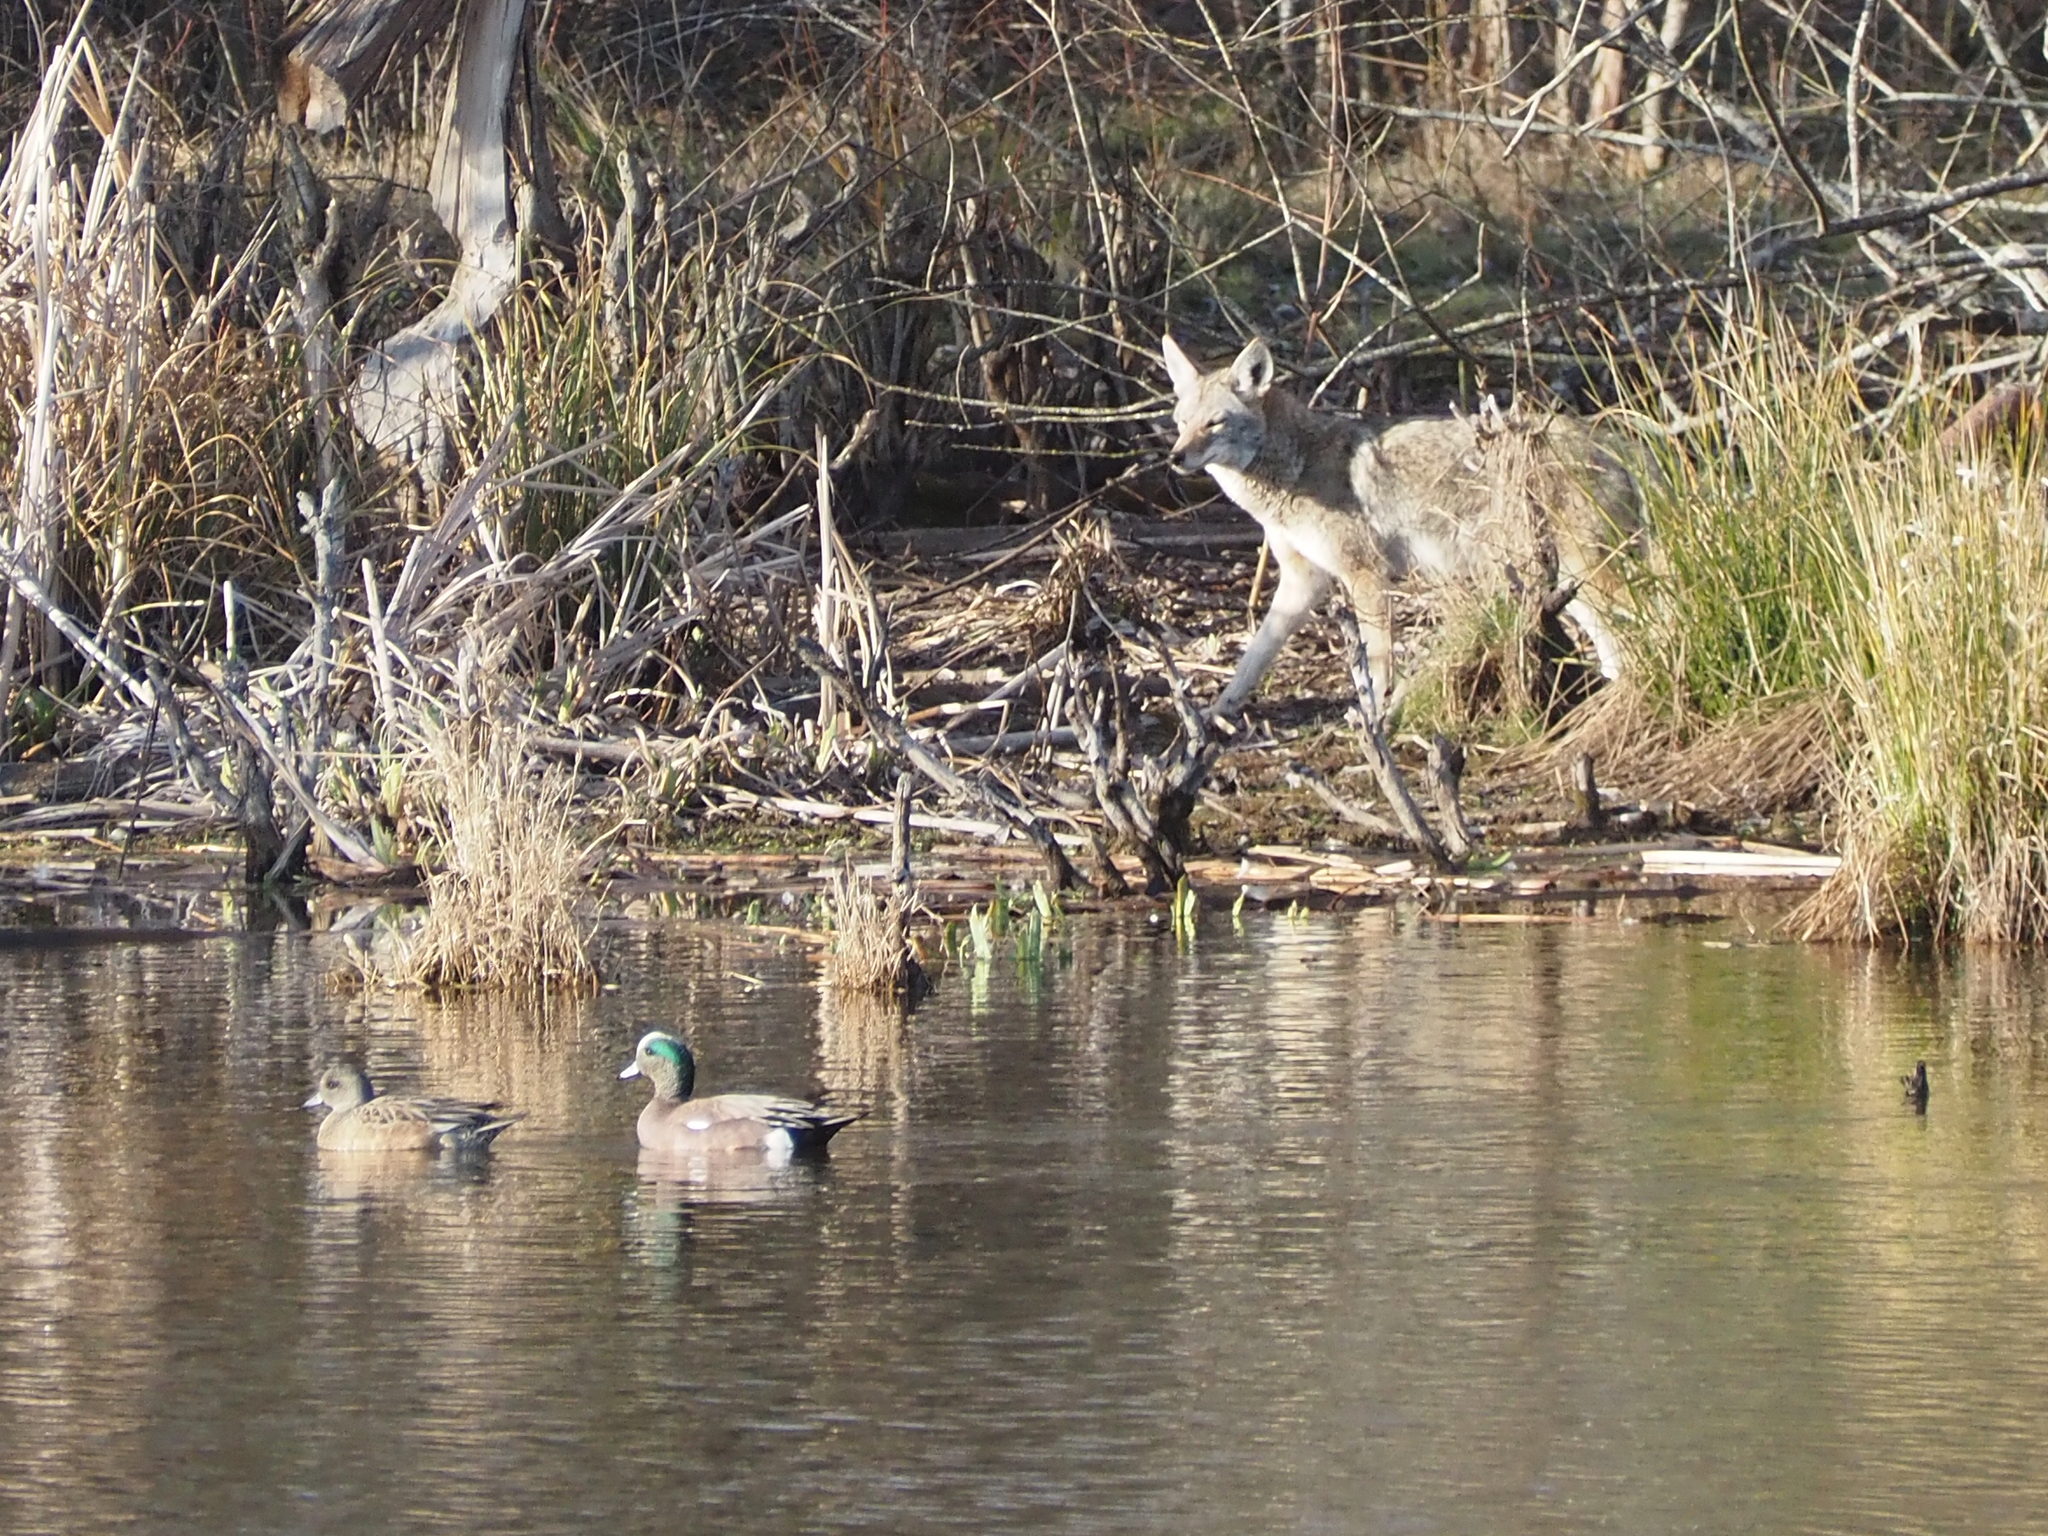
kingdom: Animalia
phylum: Chordata
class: Mammalia
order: Carnivora
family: Canidae
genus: Canis
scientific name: Canis latrans
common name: Coyote
